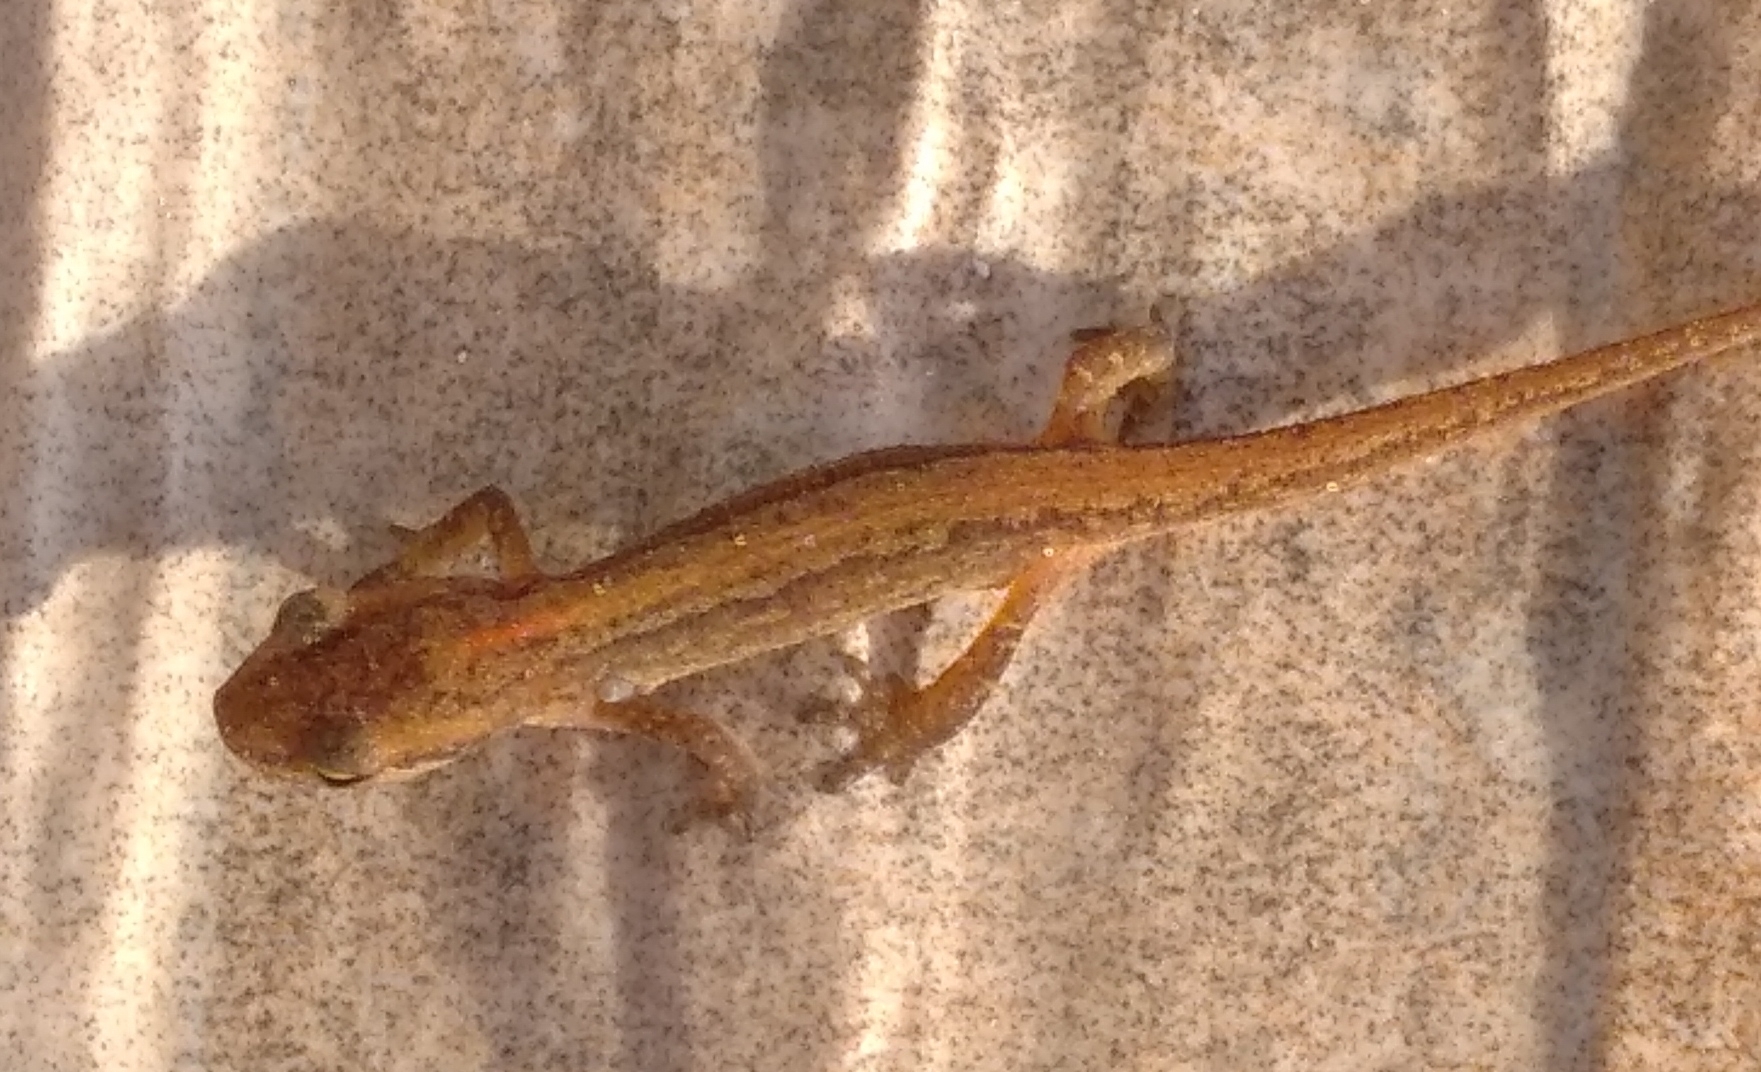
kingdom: Animalia
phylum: Chordata
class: Amphibia
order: Caudata
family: Salamandridae
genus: Lissotriton
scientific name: Lissotriton schmidtleri
